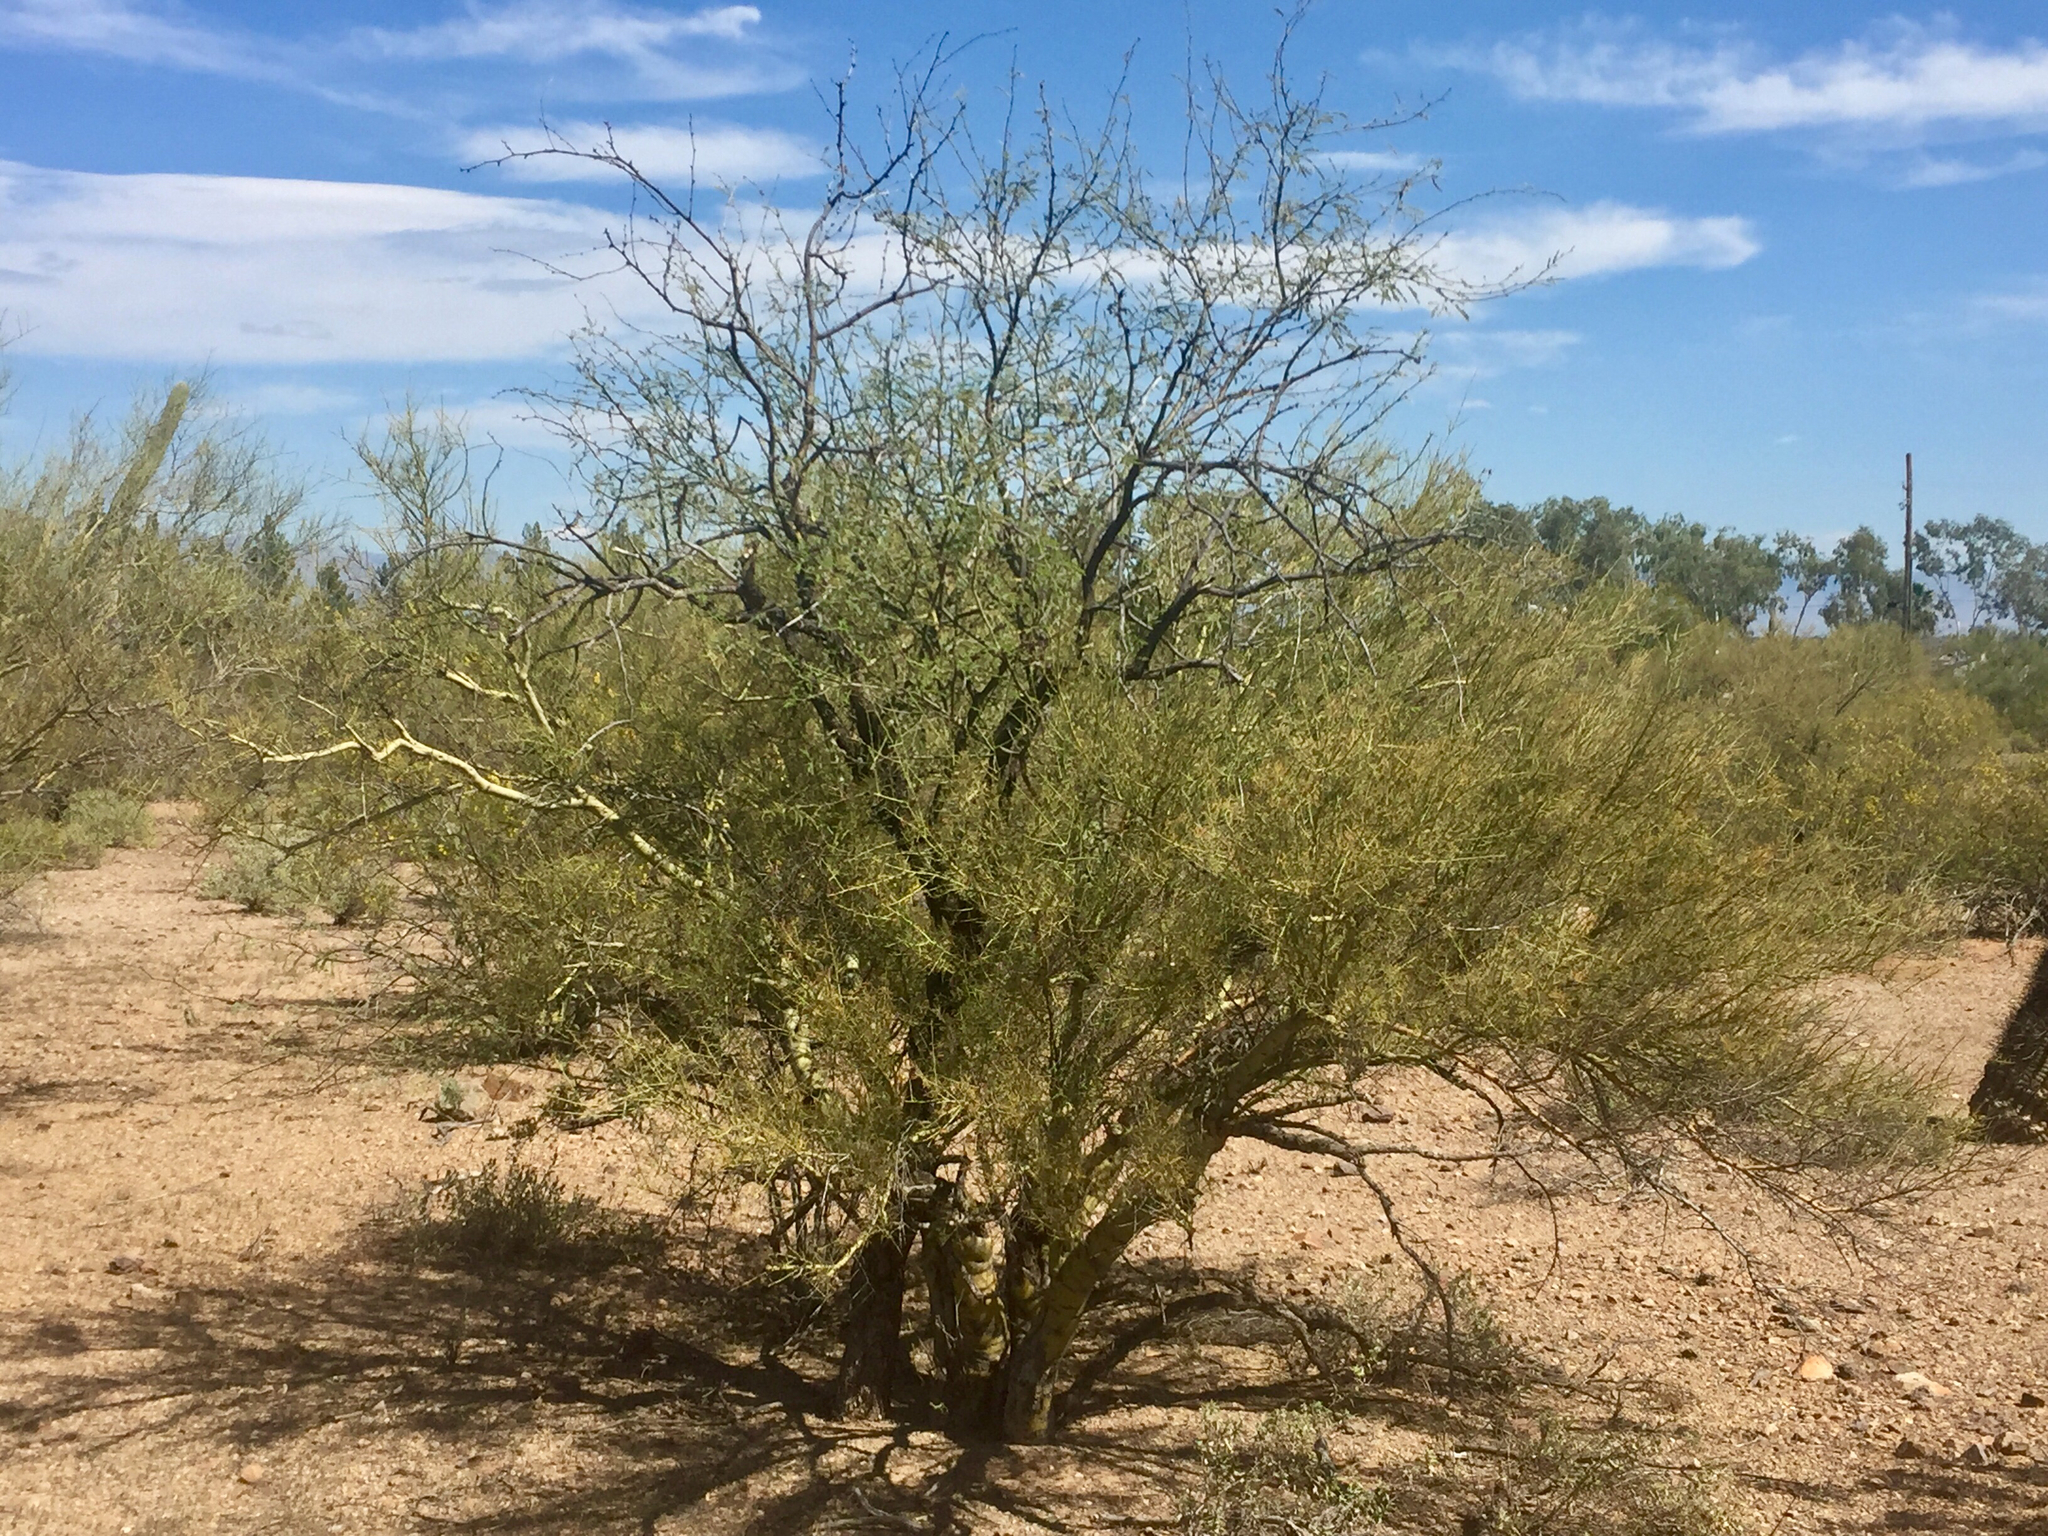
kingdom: Plantae
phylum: Tracheophyta
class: Magnoliopsida
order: Fabales
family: Fabaceae
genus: Parkinsonia
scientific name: Parkinsonia microphylla
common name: Yellow paloverde
